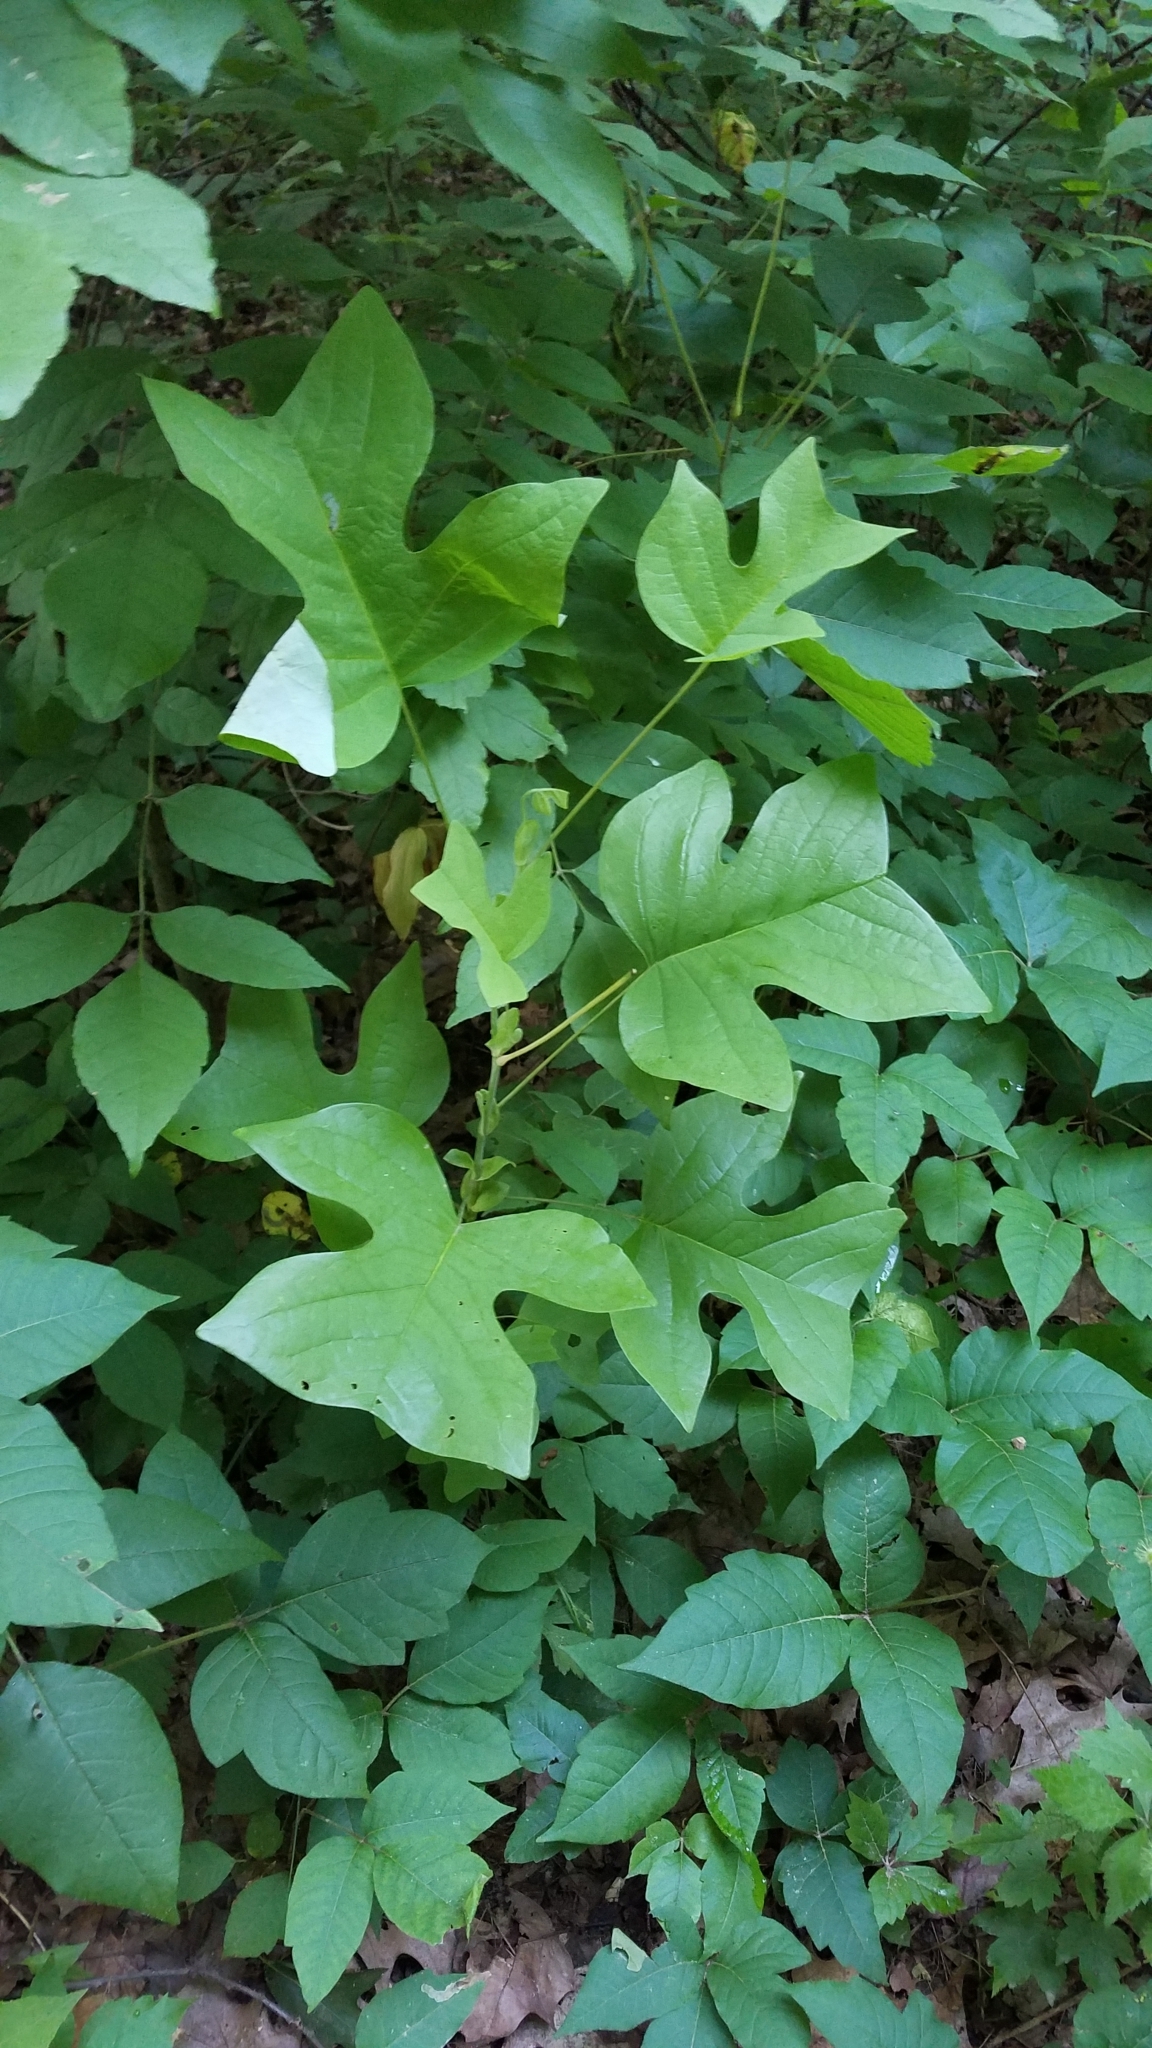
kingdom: Plantae
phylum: Tracheophyta
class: Magnoliopsida
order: Magnoliales
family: Magnoliaceae
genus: Liriodendron
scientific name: Liriodendron tulipifera
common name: Tulip tree
